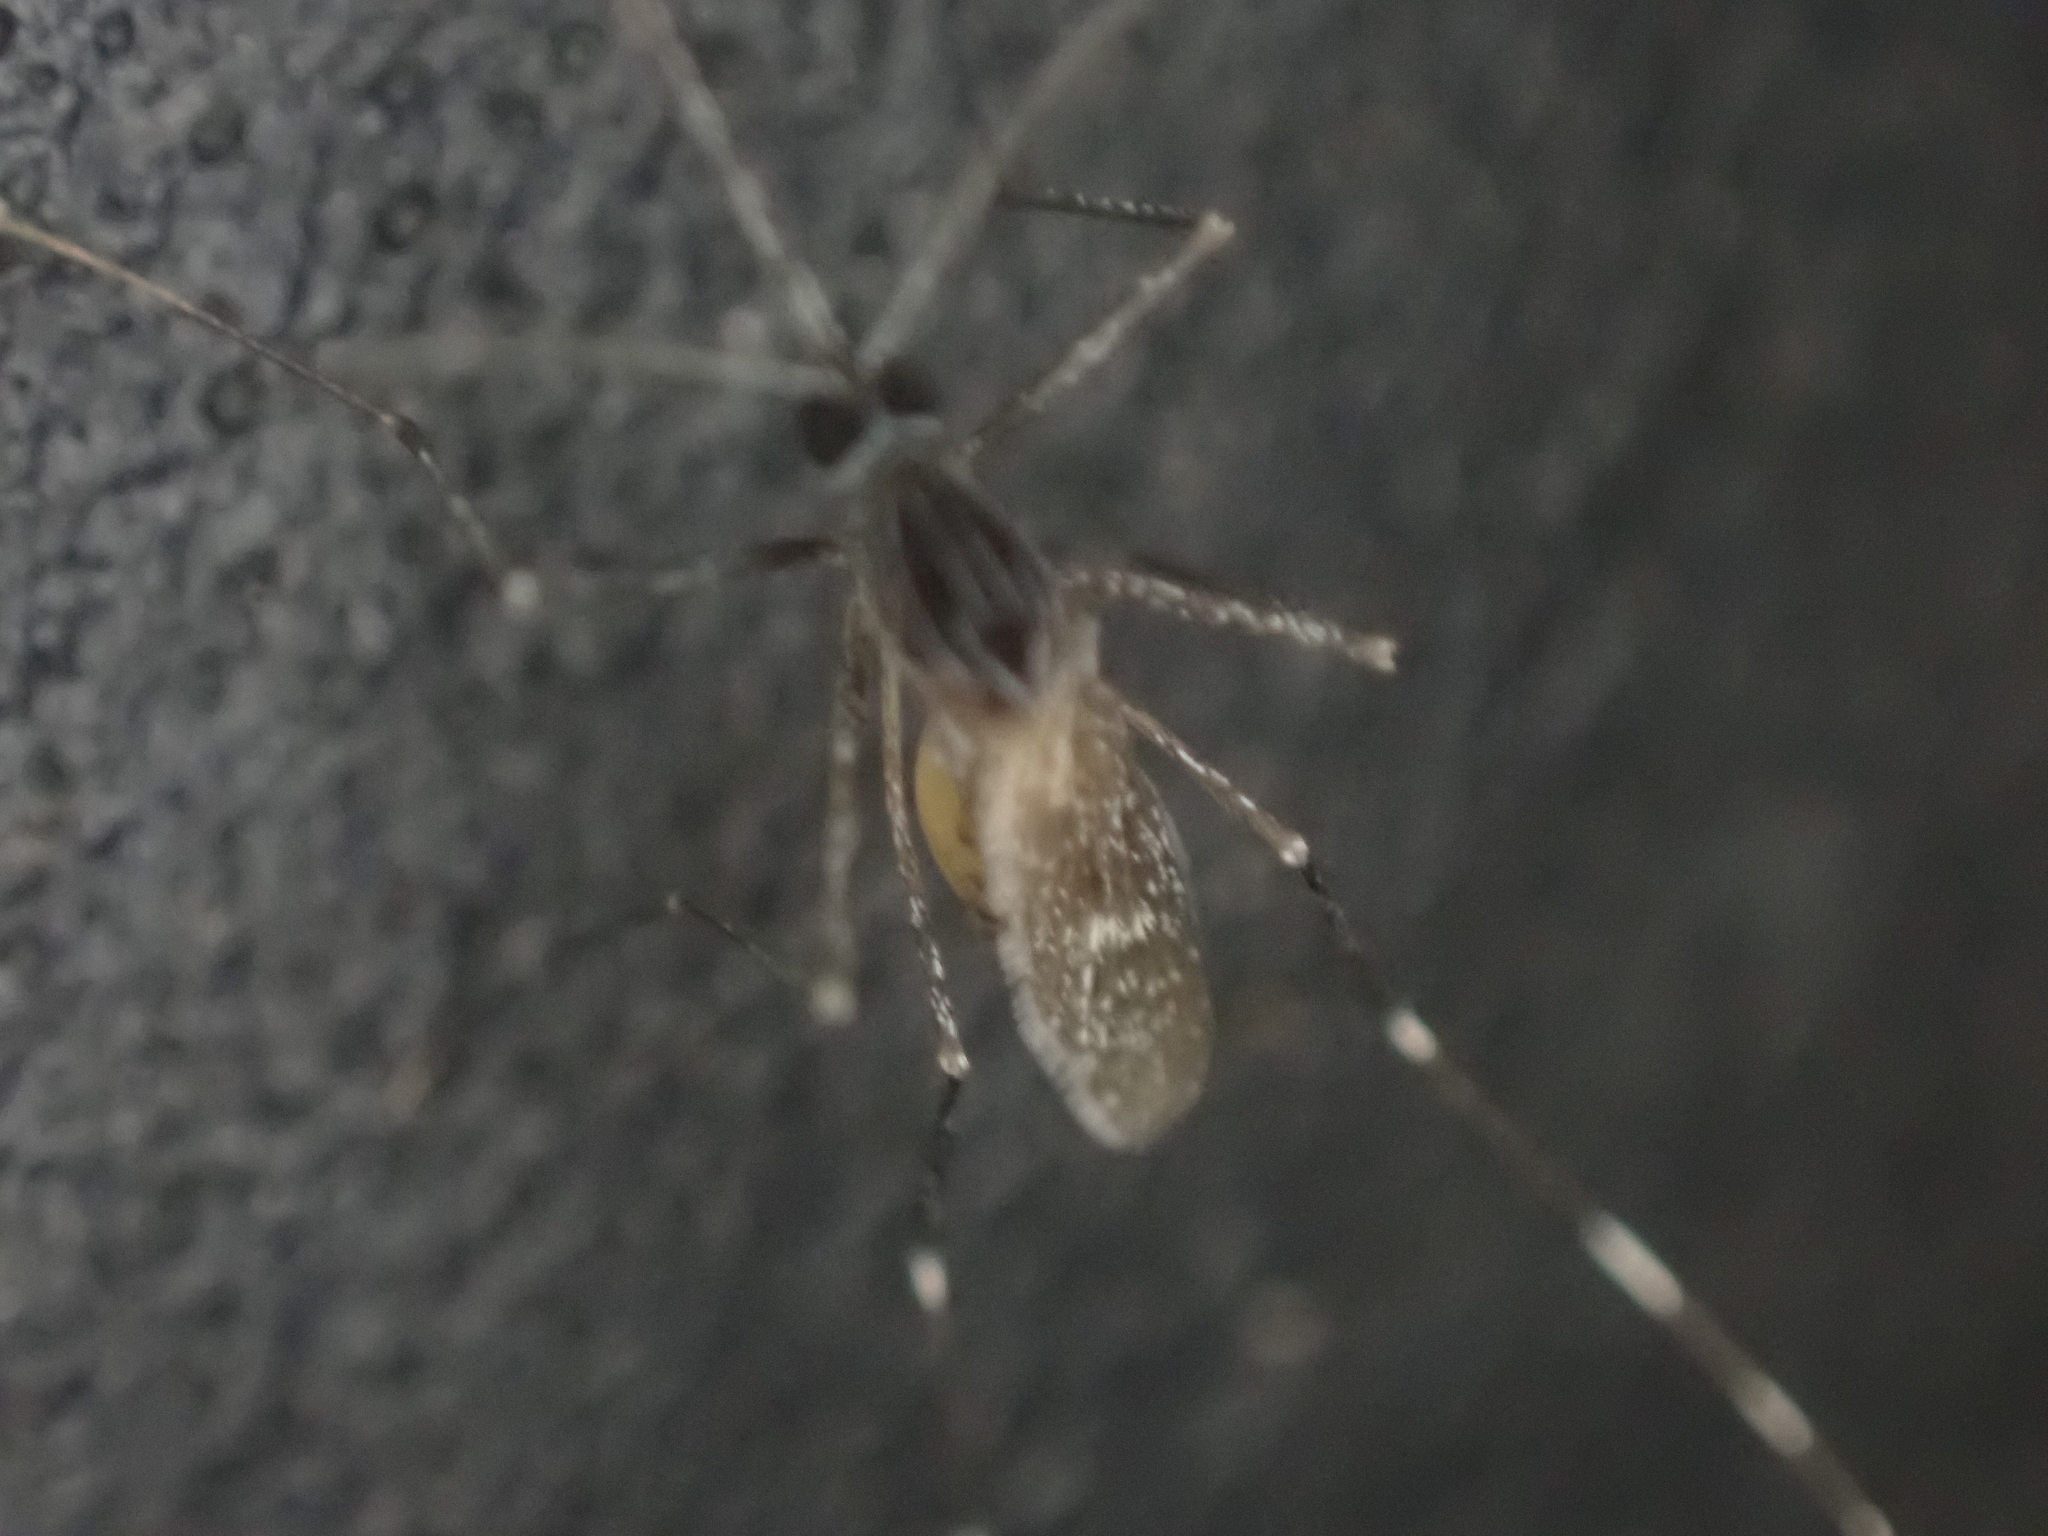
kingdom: Animalia
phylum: Arthropoda
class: Insecta
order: Diptera
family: Culicidae
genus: Orthopodomyia
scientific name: Orthopodomyia signifera
